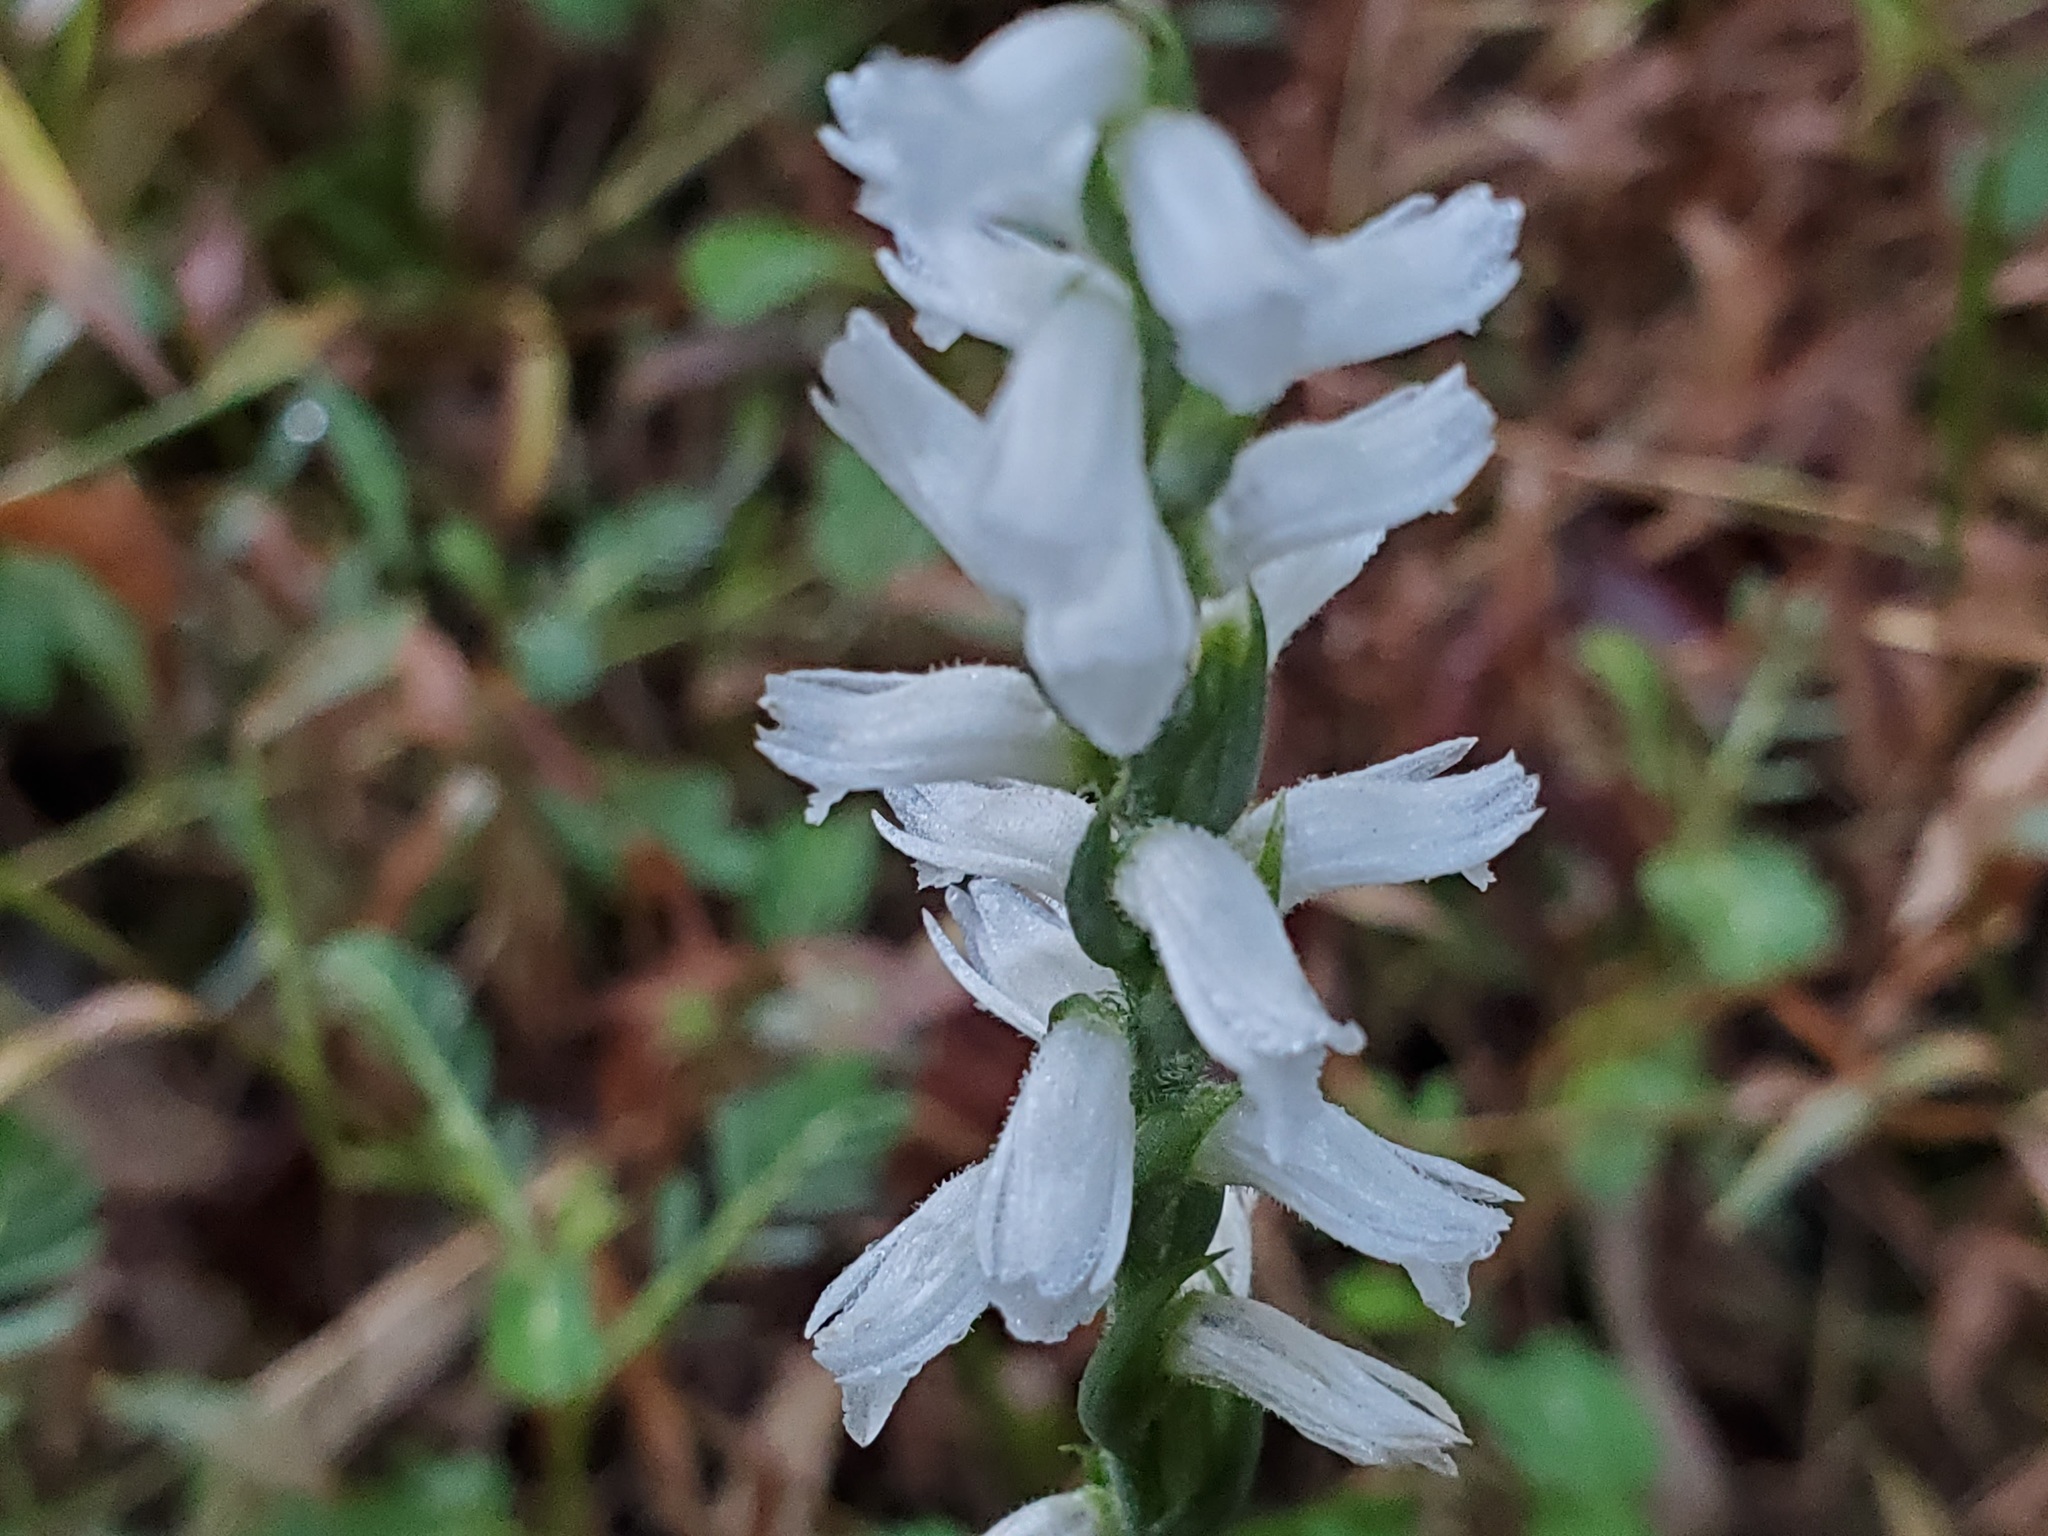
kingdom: Plantae
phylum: Tracheophyta
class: Liliopsida
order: Asparagales
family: Orchidaceae
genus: Spiranthes
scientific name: Spiranthes cernua
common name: Dropping ladies'-tresses
